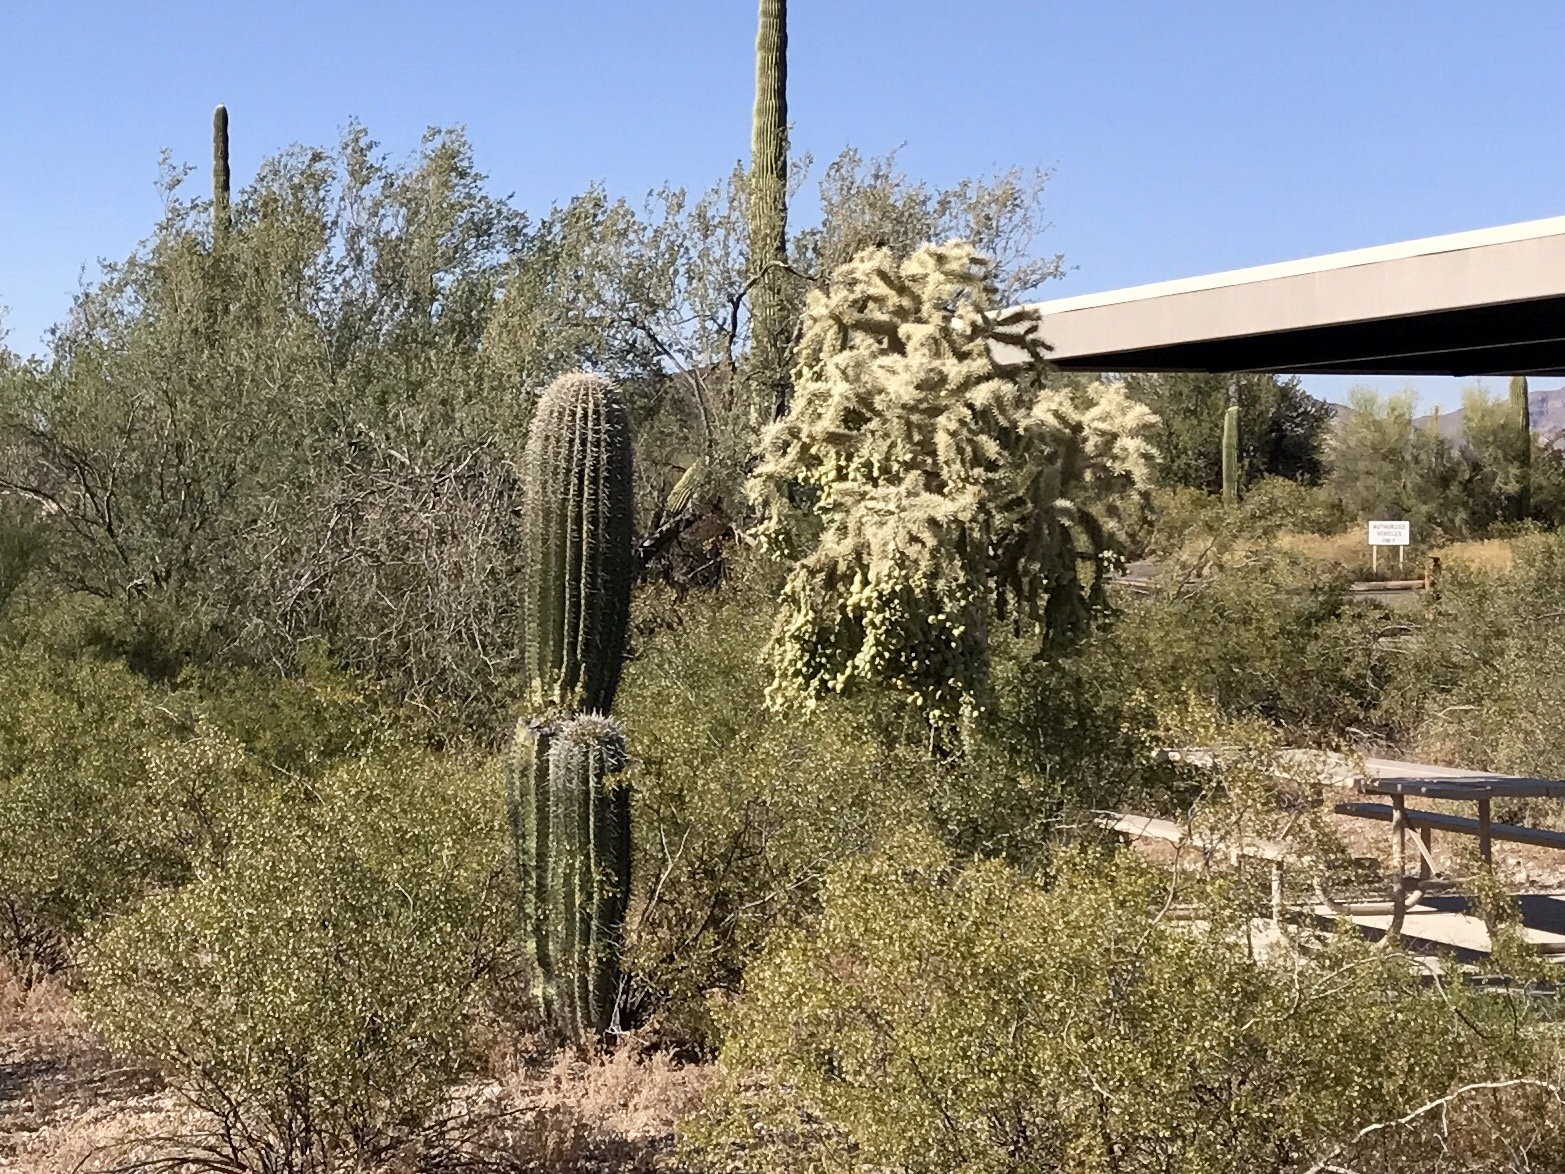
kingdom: Plantae
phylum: Tracheophyta
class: Magnoliopsida
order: Caryophyllales
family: Cactaceae
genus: Carnegiea
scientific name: Carnegiea gigantea
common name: Saguaro
